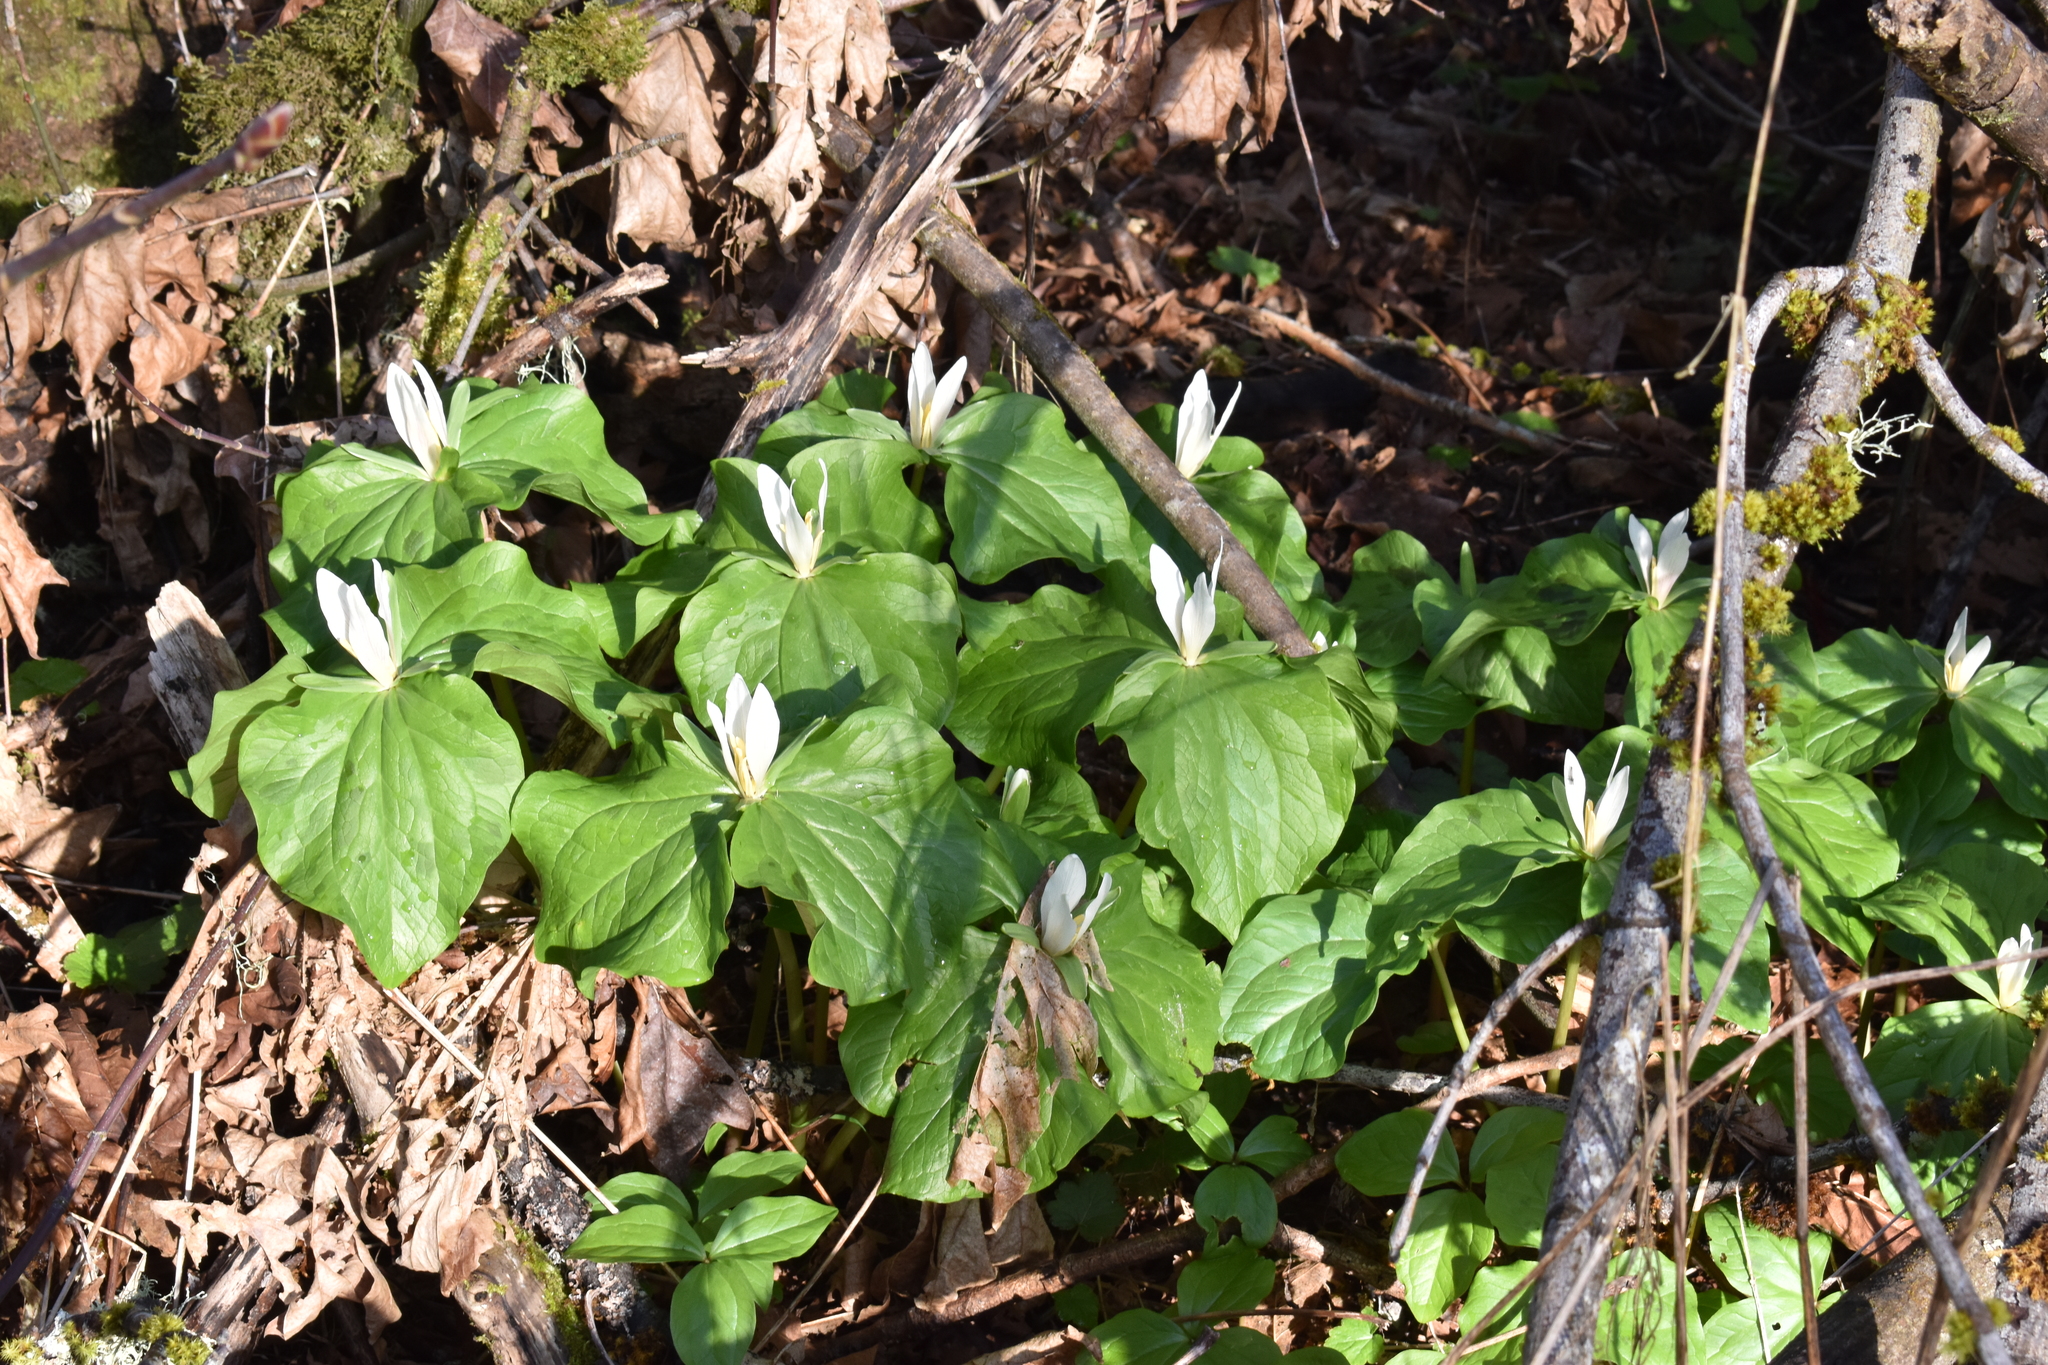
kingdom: Plantae
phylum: Tracheophyta
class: Liliopsida
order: Liliales
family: Melanthiaceae
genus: Trillium
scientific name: Trillium albidum
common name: Freeman's trillium
